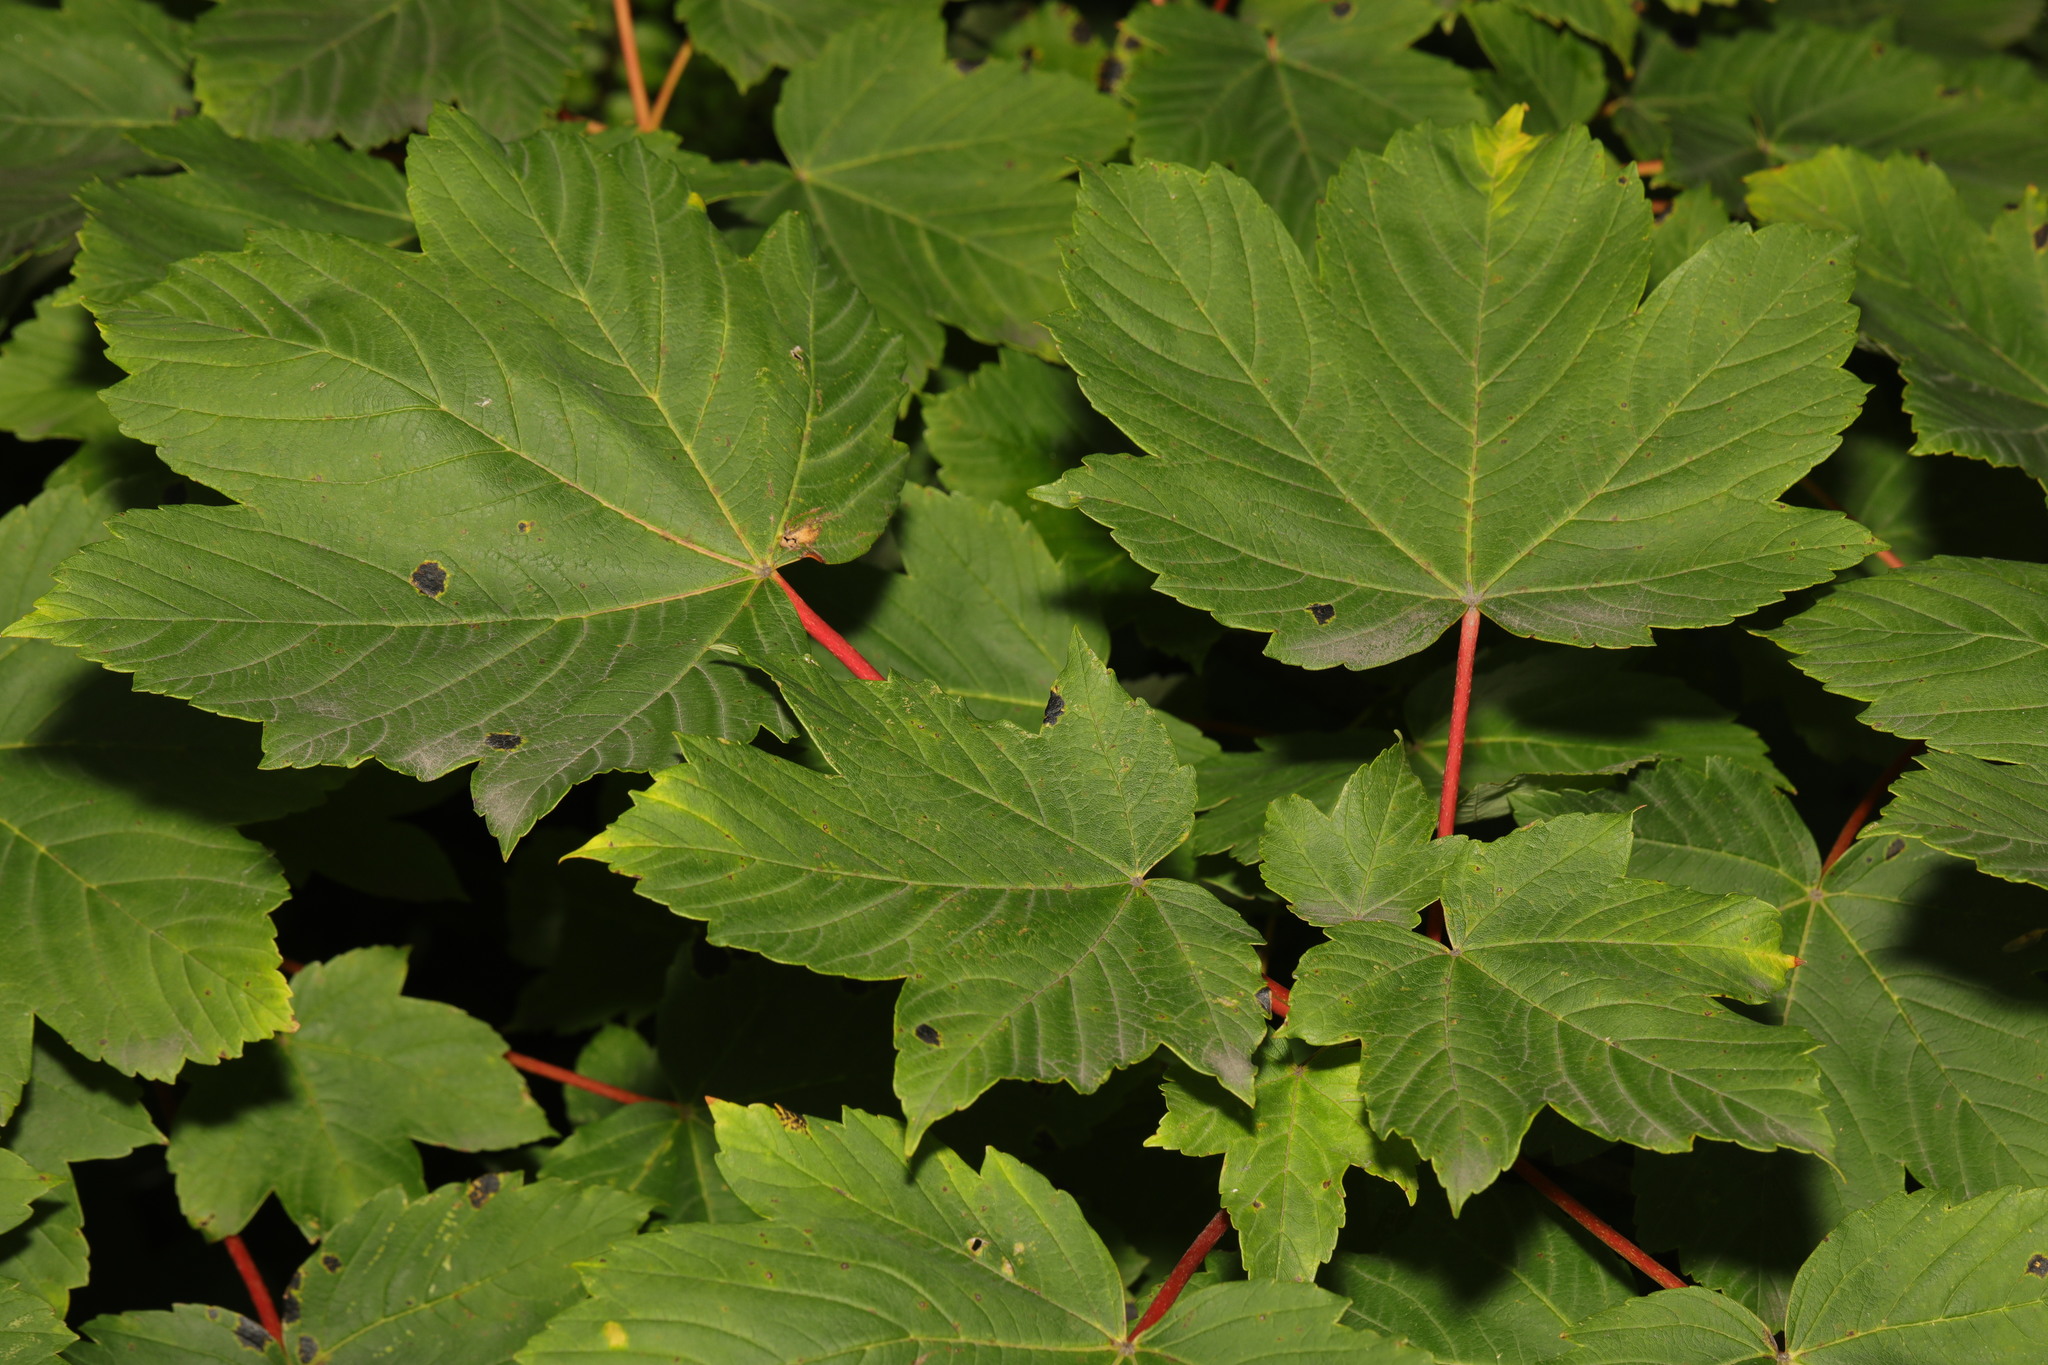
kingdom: Plantae
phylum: Tracheophyta
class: Magnoliopsida
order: Sapindales
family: Sapindaceae
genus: Acer
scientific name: Acer pseudoplatanus
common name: Sycamore
